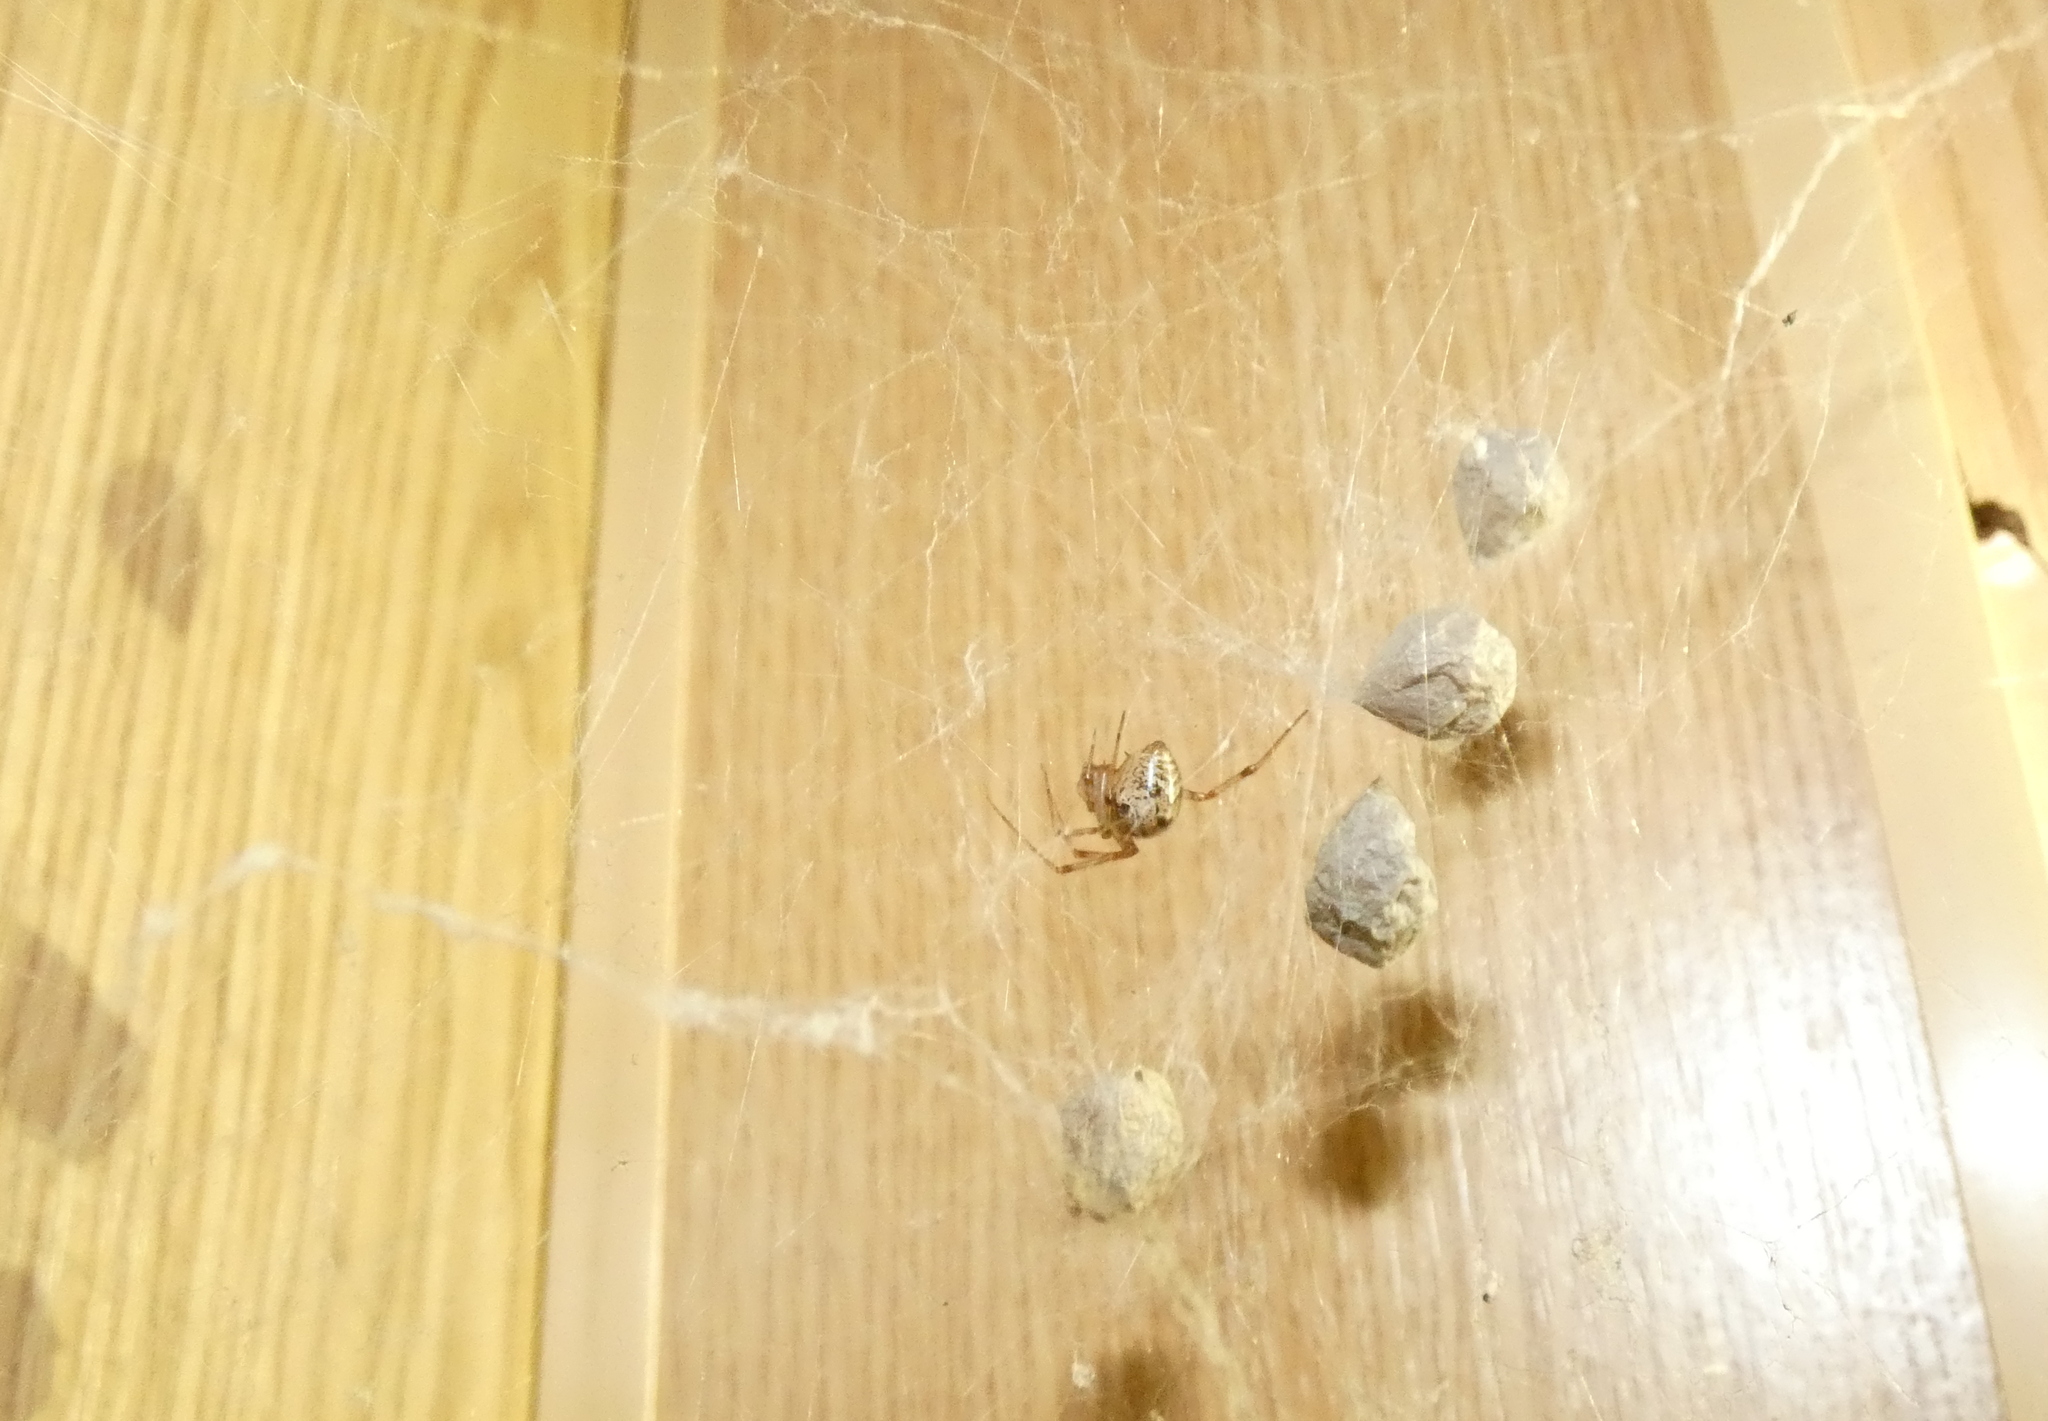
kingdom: Animalia
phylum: Arthropoda
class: Arachnida
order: Araneae
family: Theridiidae
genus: Parasteatoda
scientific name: Parasteatoda tepidariorum
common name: Common house spider
